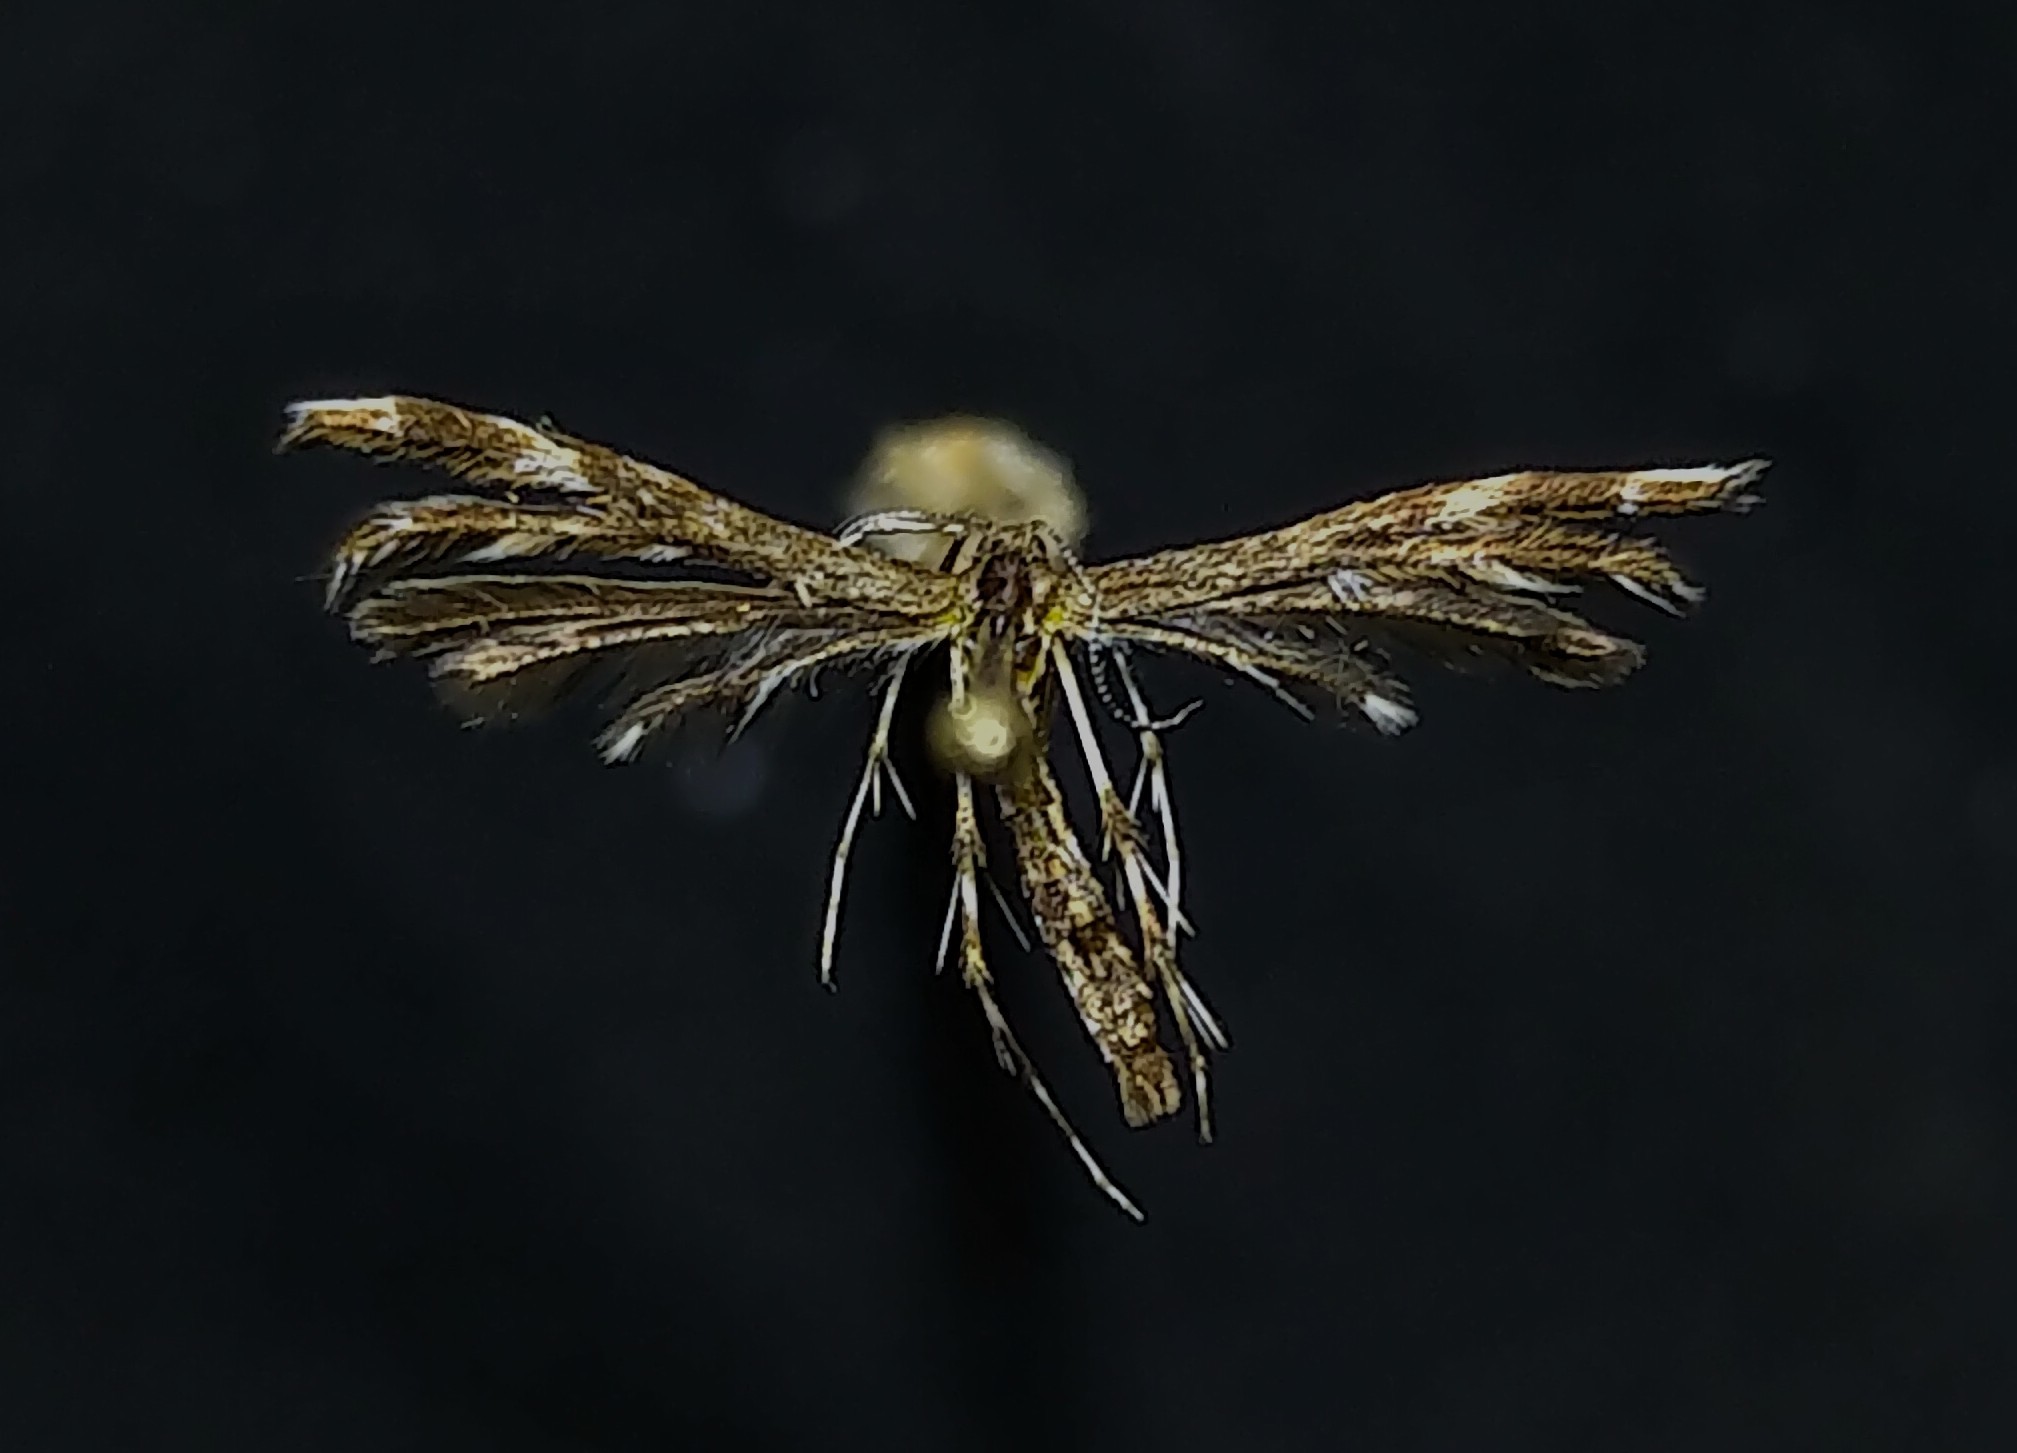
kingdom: Animalia
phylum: Arthropoda
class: Insecta
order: Lepidoptera
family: Pterophoridae
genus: Dejongia
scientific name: Dejongia lobidactylus
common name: Lobed plume moth
